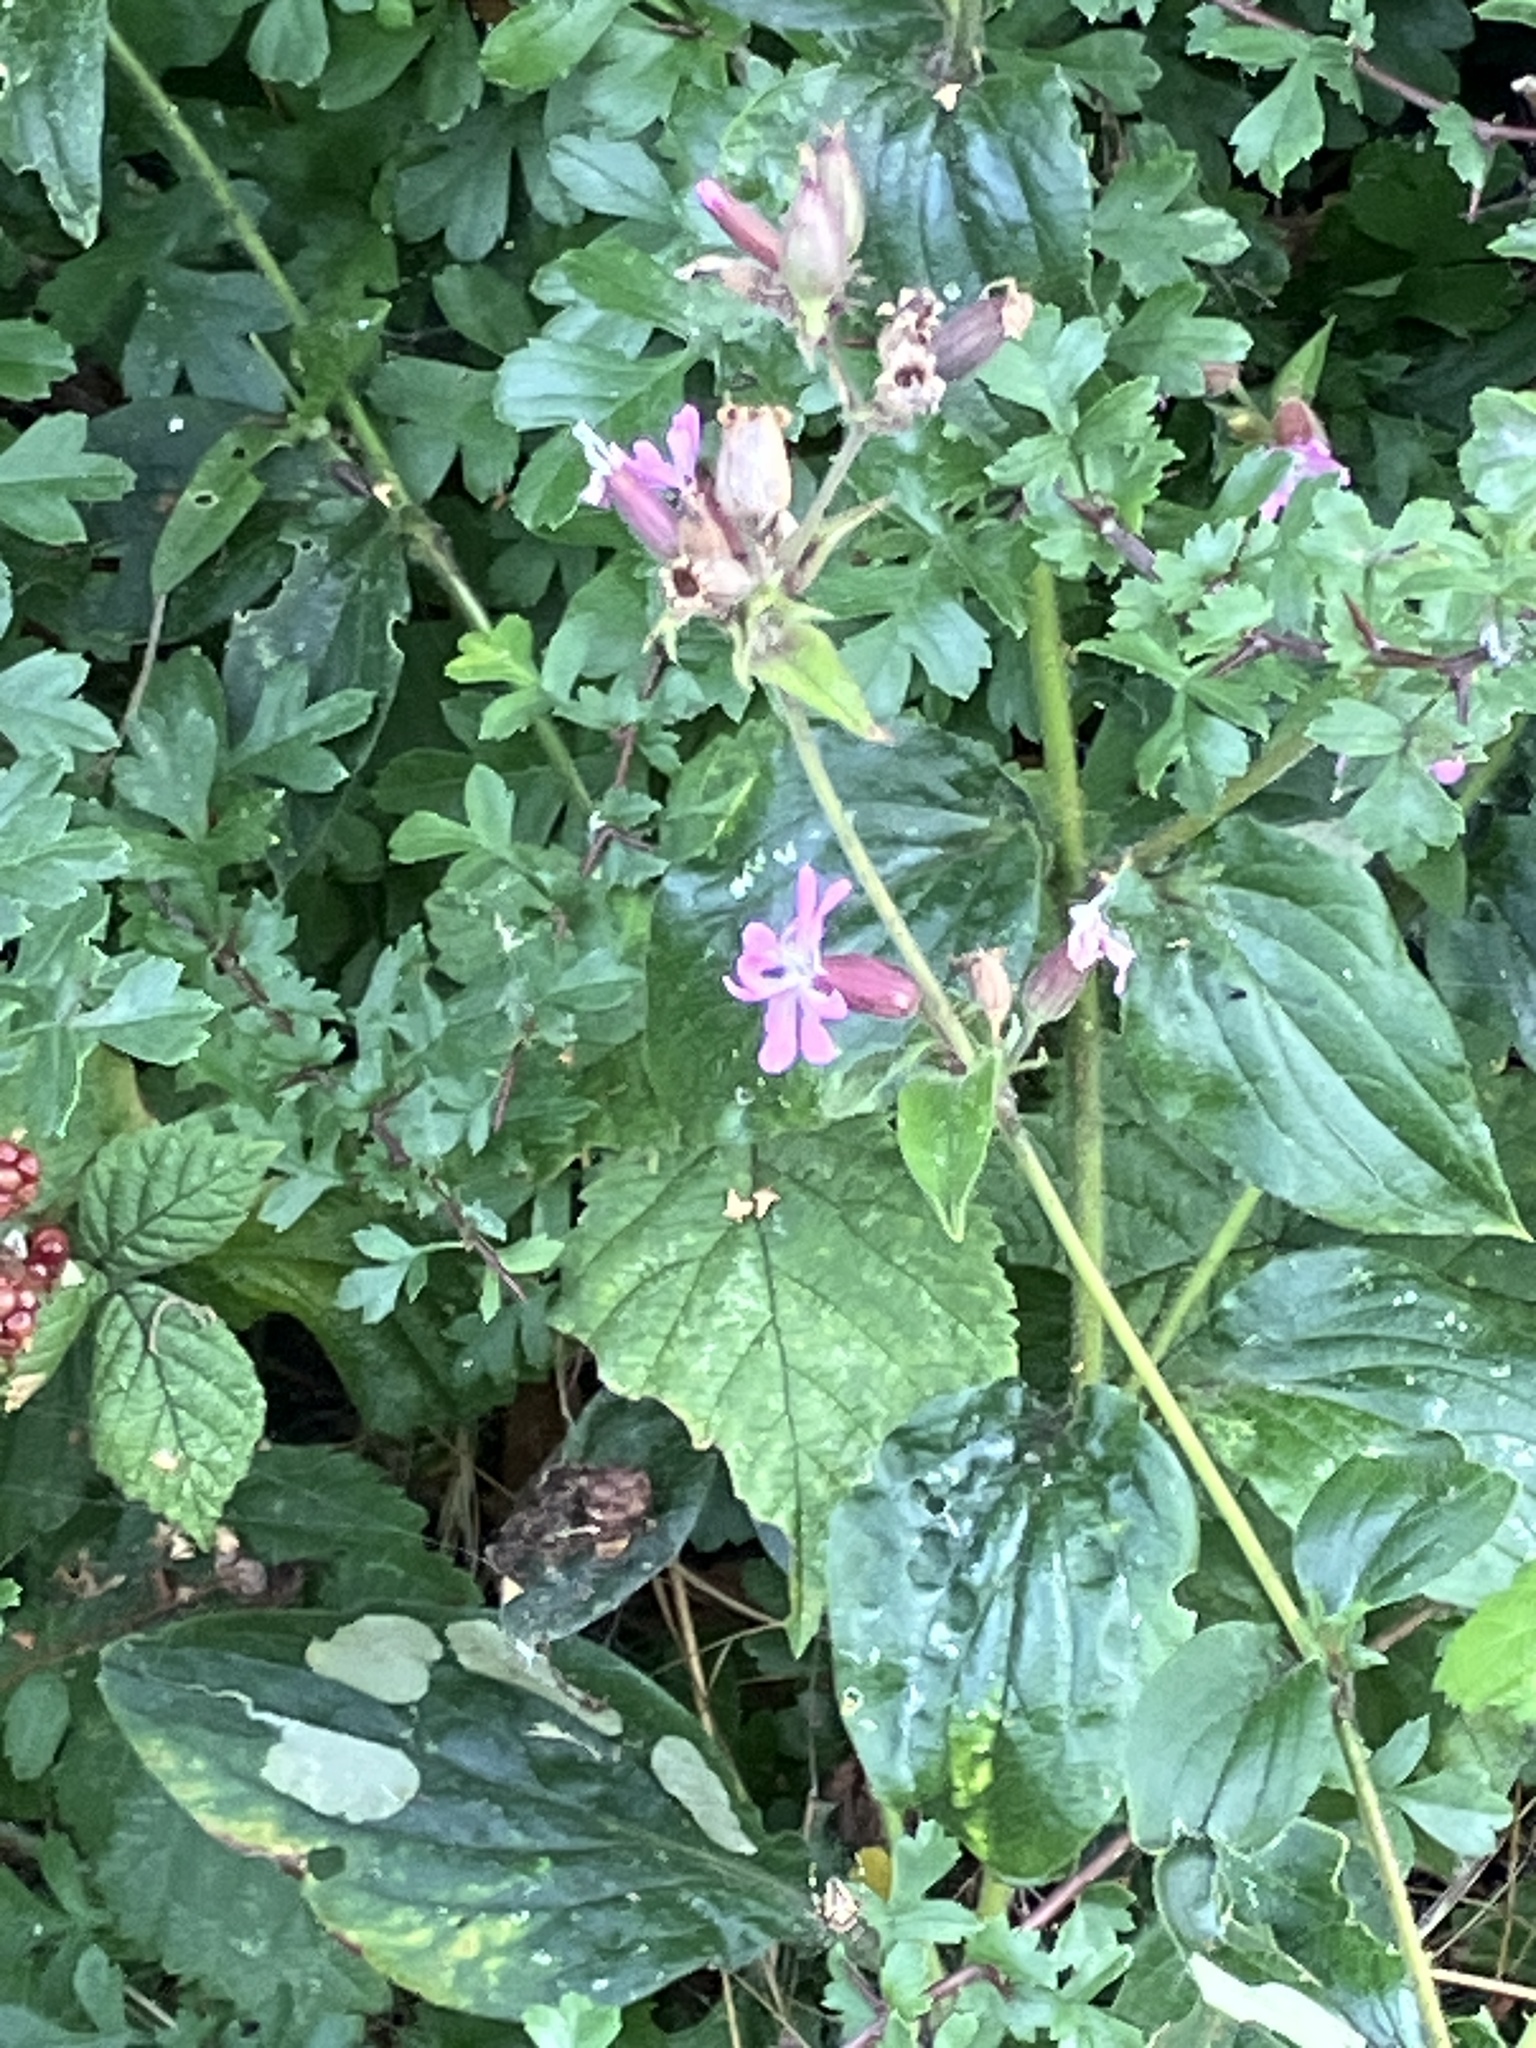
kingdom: Plantae
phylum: Tracheophyta
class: Magnoliopsida
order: Caryophyllales
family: Caryophyllaceae
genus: Silene
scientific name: Silene dioica
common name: Red campion
